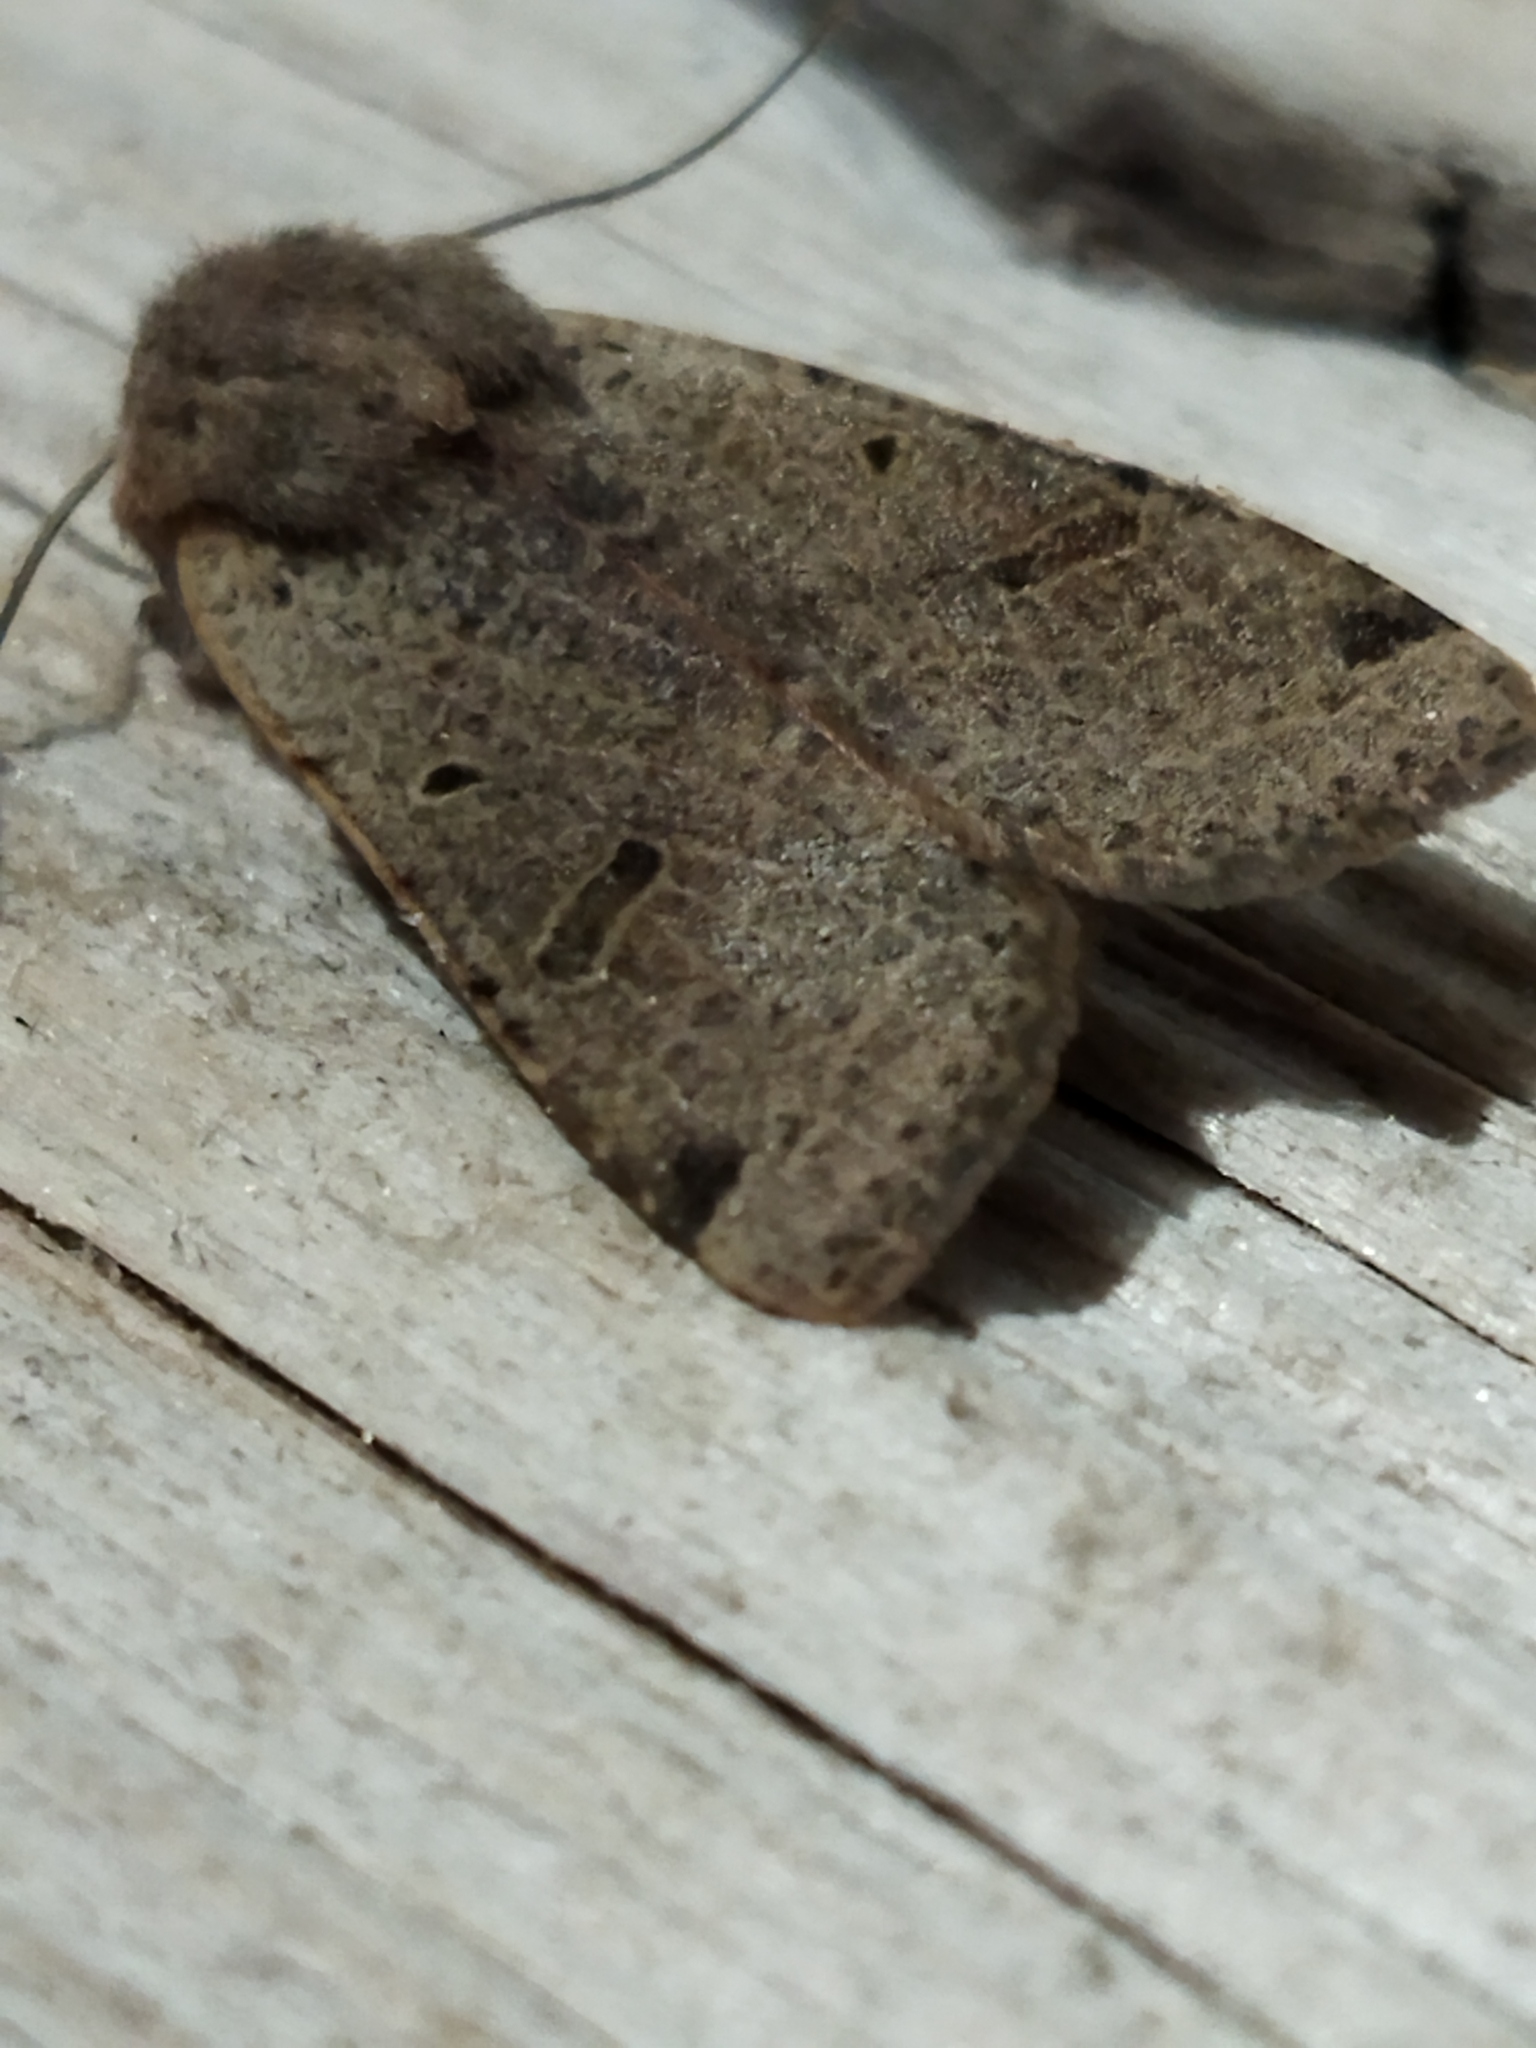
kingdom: Animalia
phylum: Arthropoda
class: Insecta
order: Lepidoptera
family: Noctuidae
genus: Agrochola
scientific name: Agrochola lychnidis
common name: Beaded chestnut
